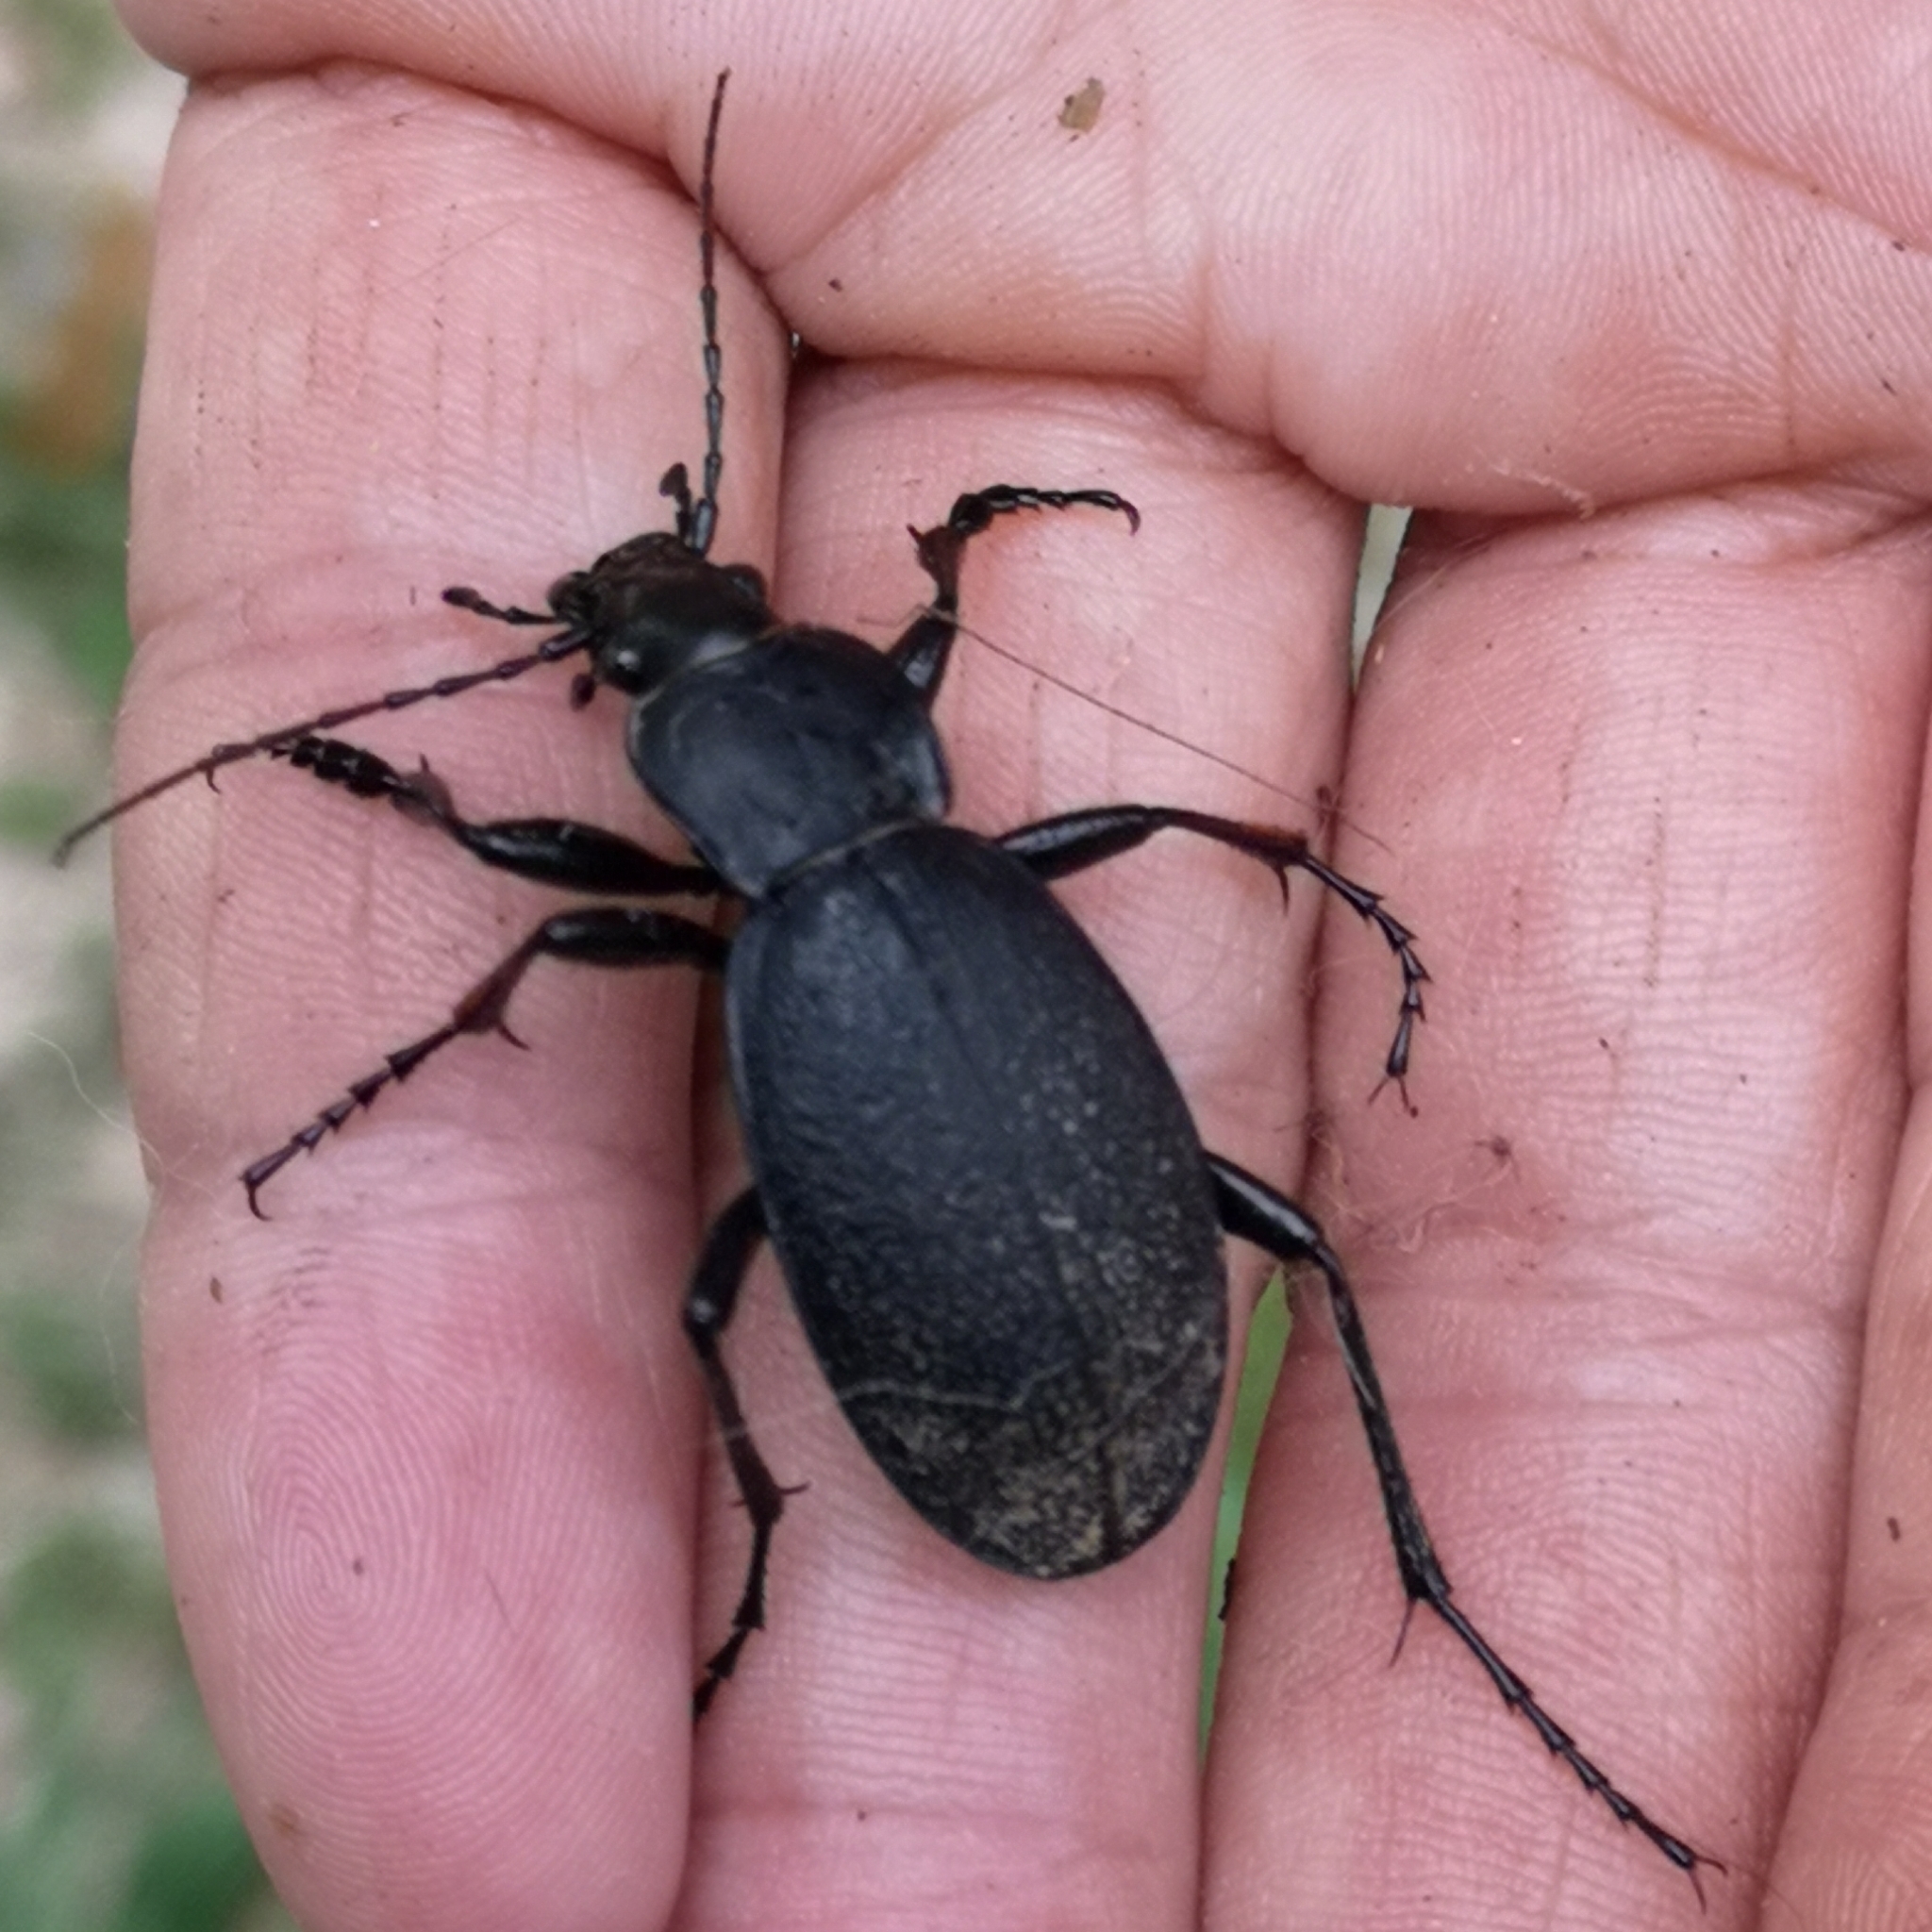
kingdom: Animalia
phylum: Arthropoda
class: Insecta
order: Coleoptera
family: Carabidae
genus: Carabus
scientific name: Carabus coriaceus
